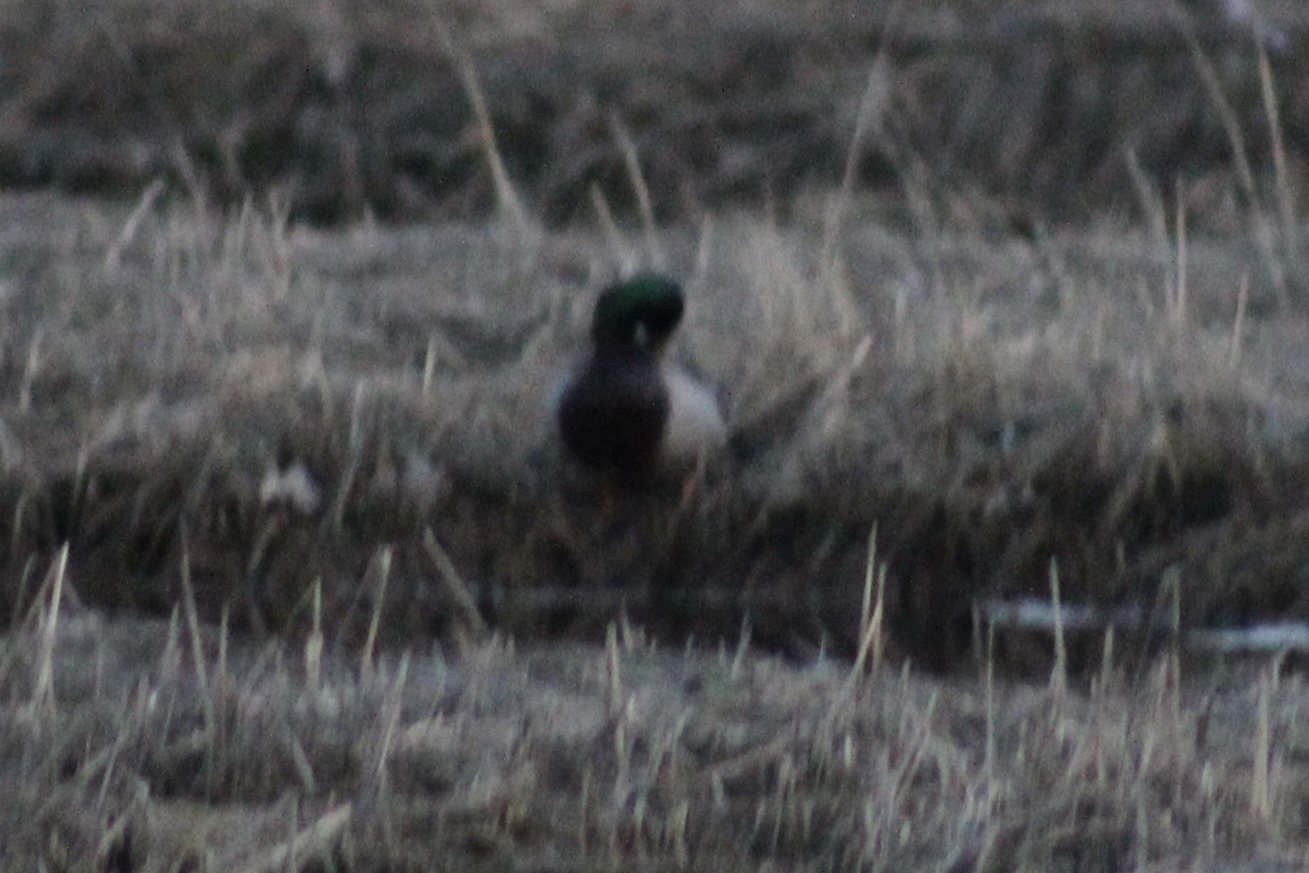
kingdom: Animalia
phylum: Chordata
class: Aves
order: Anseriformes
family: Anatidae
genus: Anas
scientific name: Anas platyrhynchos
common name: Mallard
